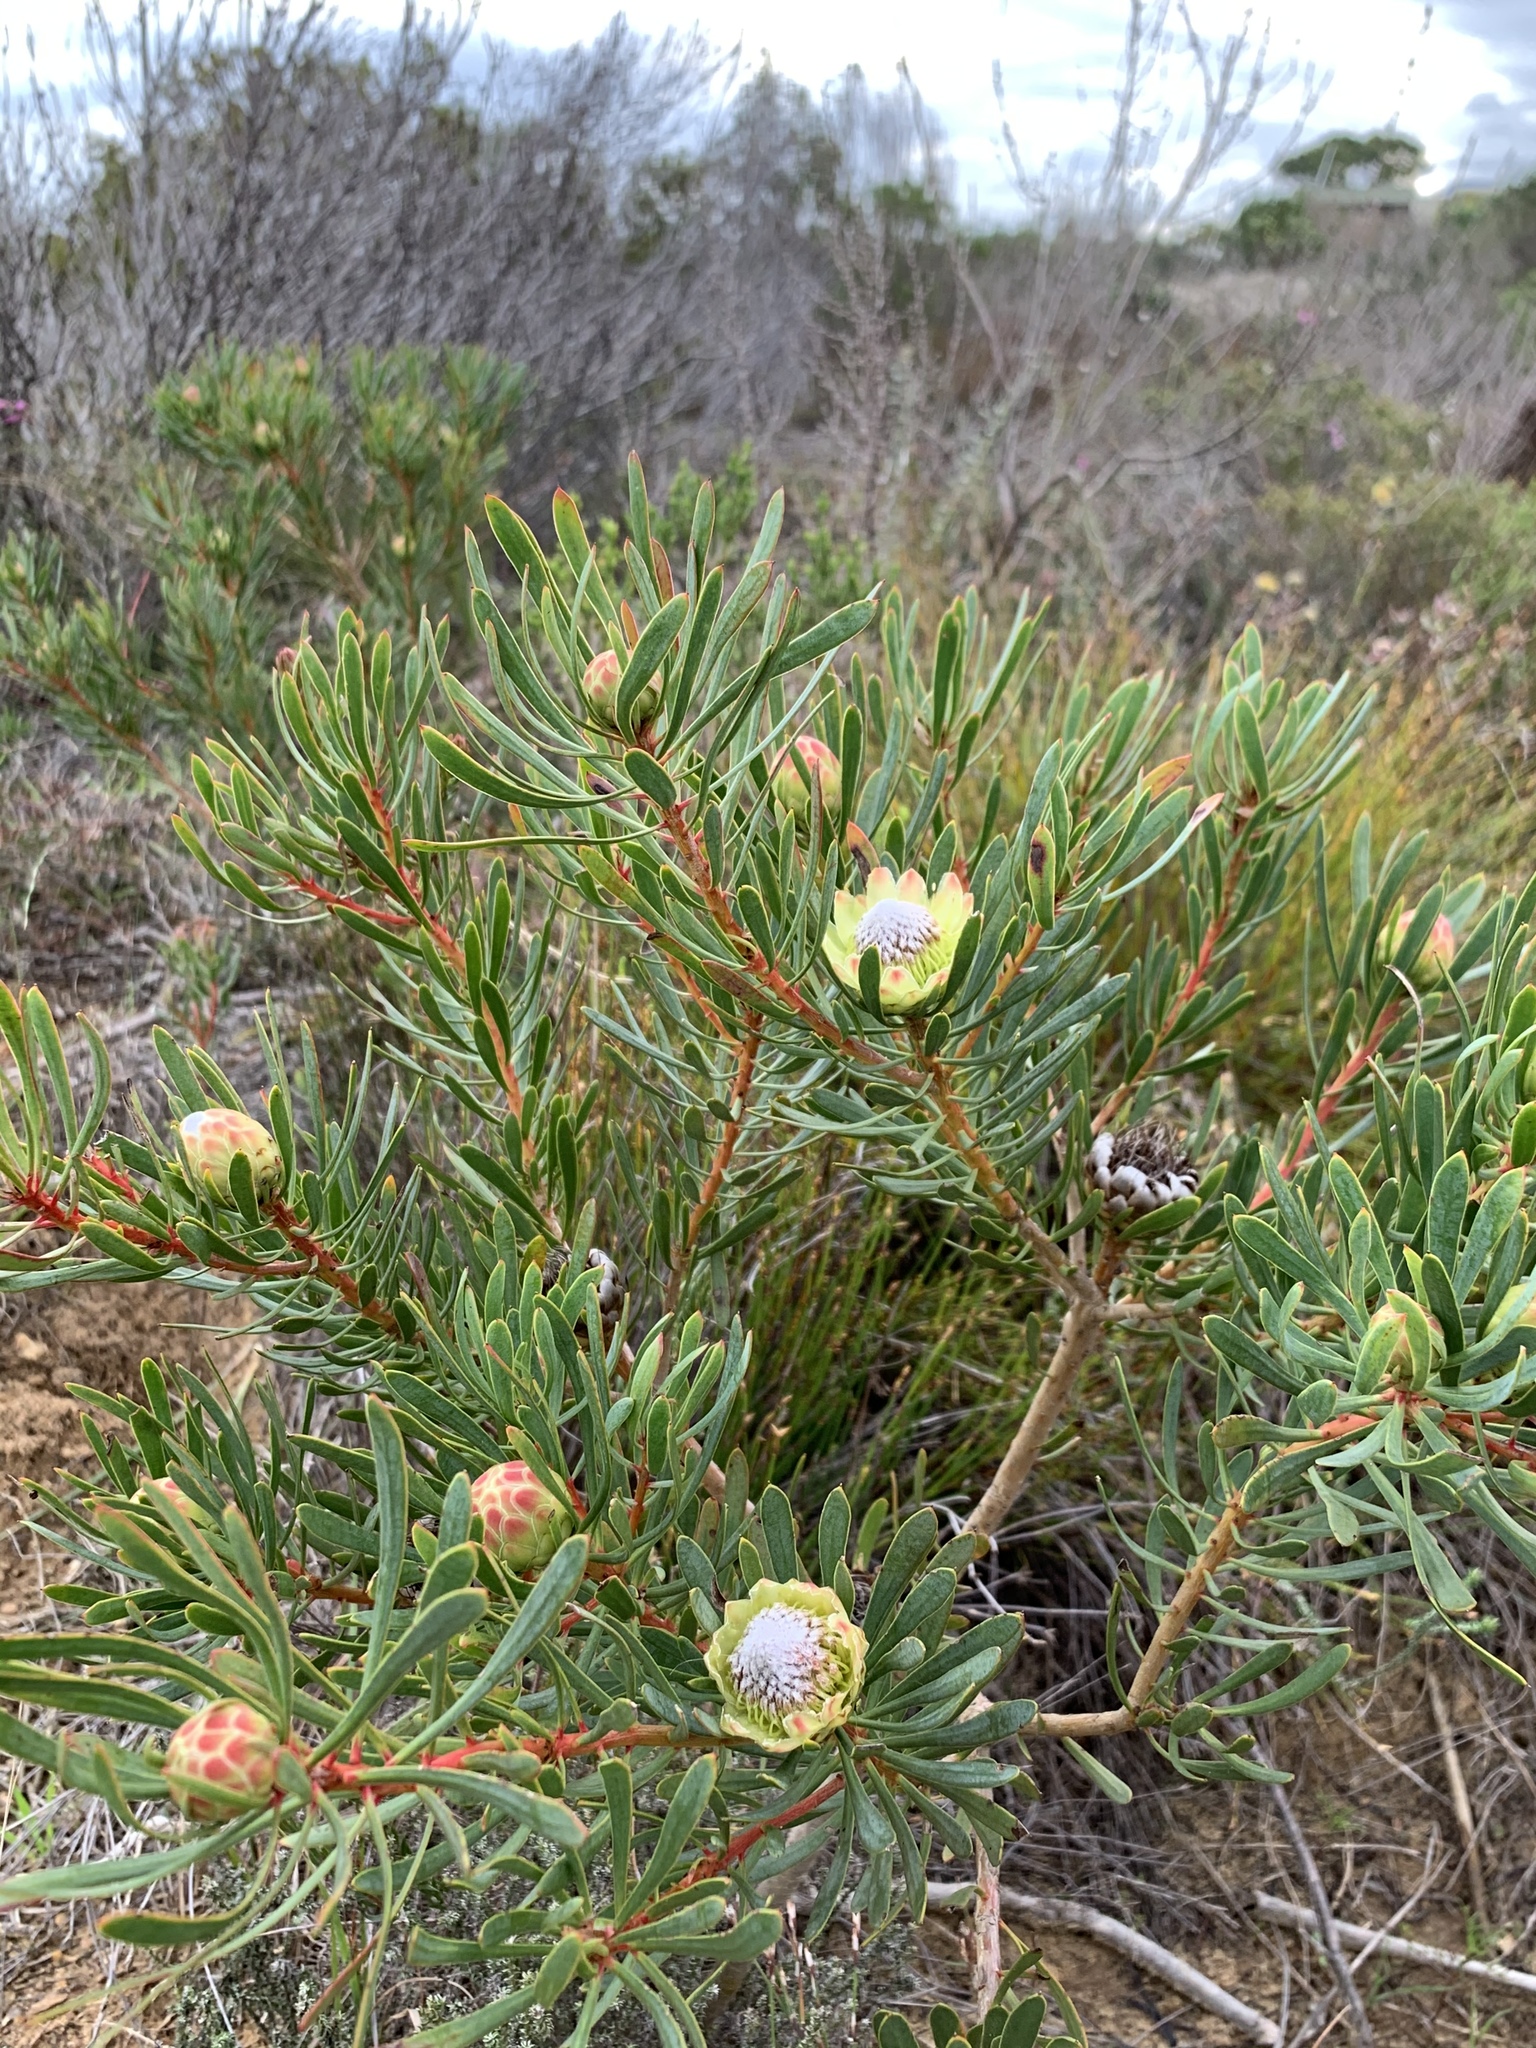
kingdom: Plantae
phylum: Tracheophyta
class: Magnoliopsida
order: Proteales
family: Proteaceae
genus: Protea
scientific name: Protea scolymocephala
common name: Thistle sugarbush
